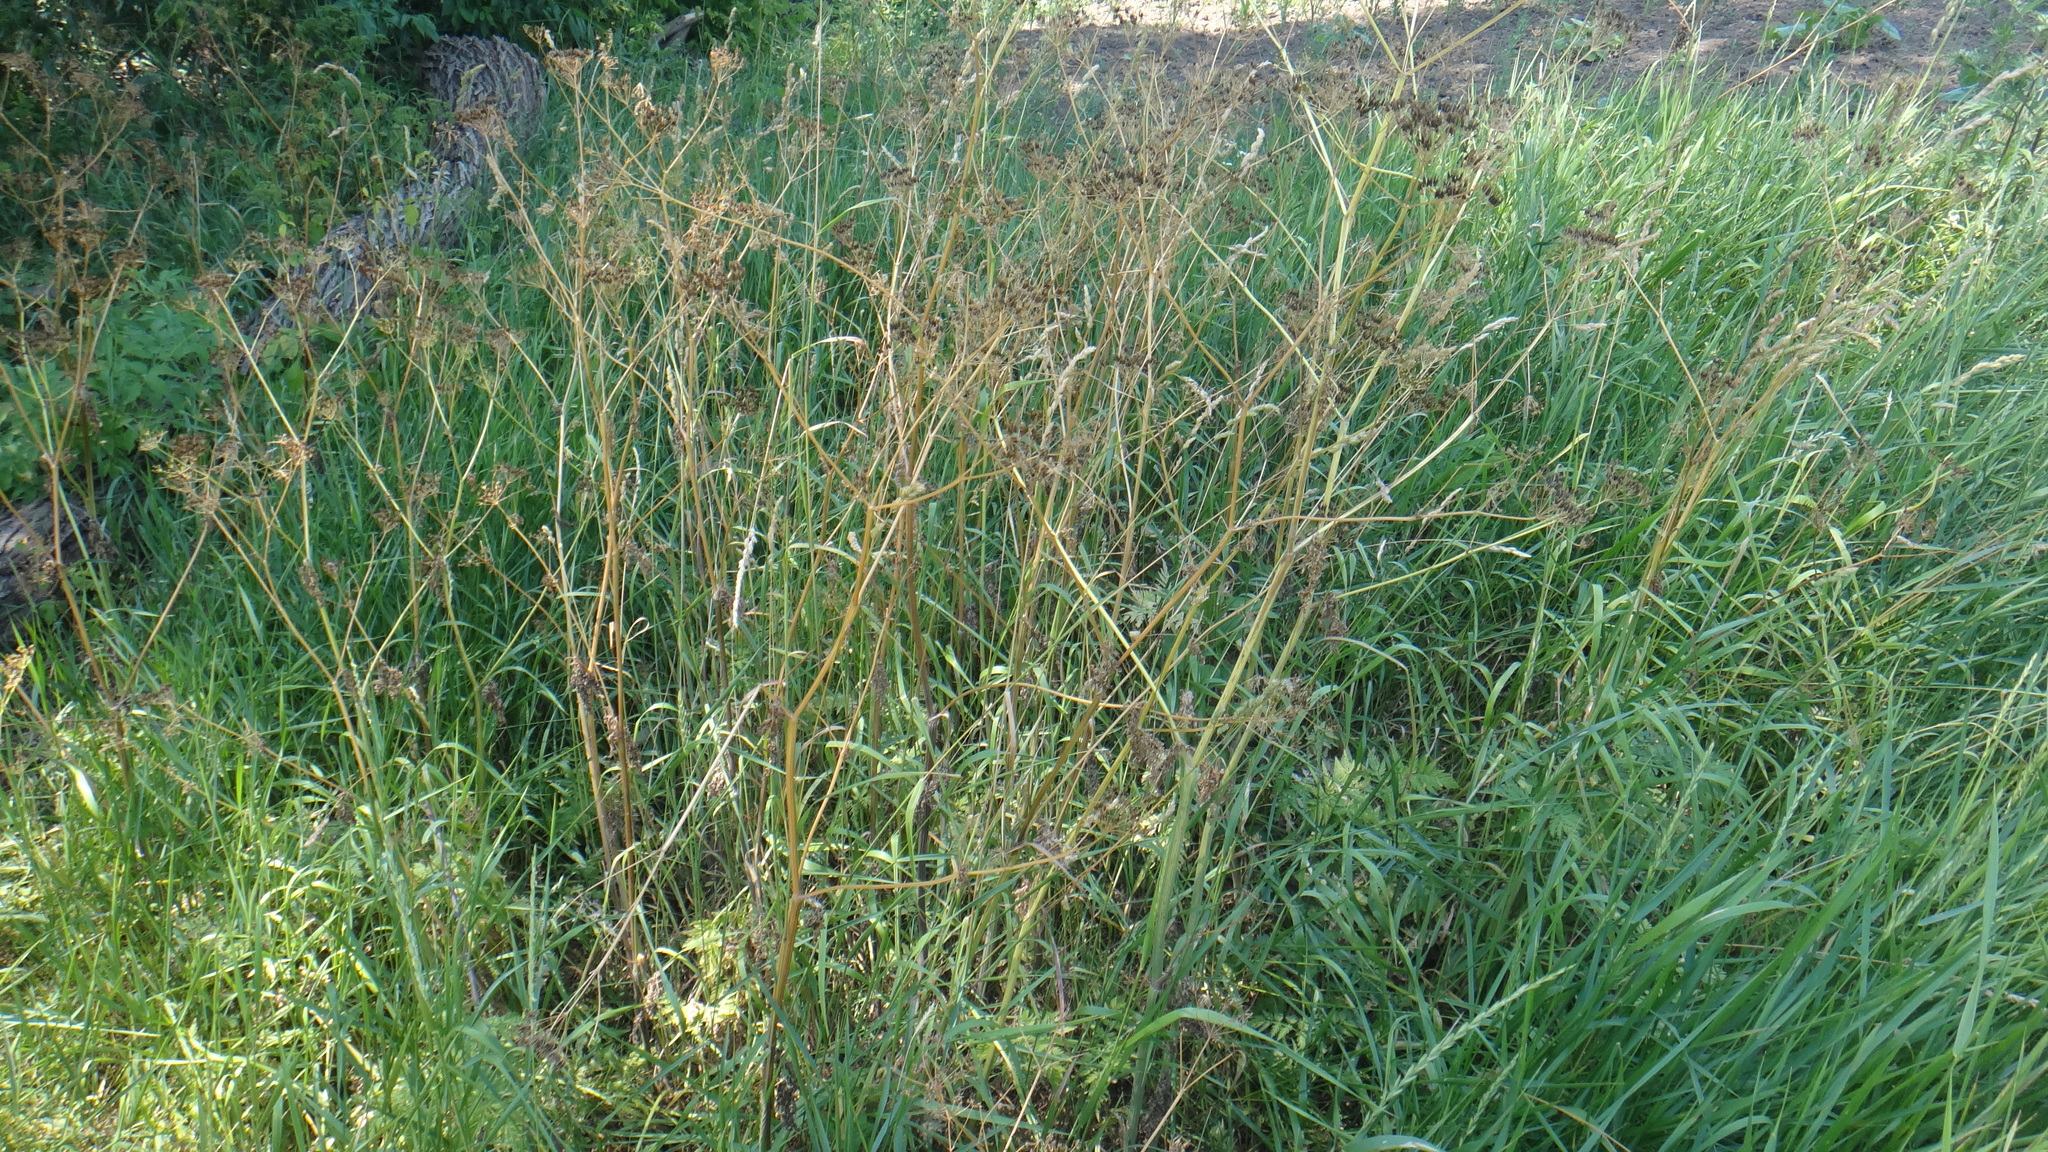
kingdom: Plantae
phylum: Tracheophyta
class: Magnoliopsida
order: Apiales
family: Apiaceae
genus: Anthriscus
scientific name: Anthriscus sylvestris
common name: Cow parsley
